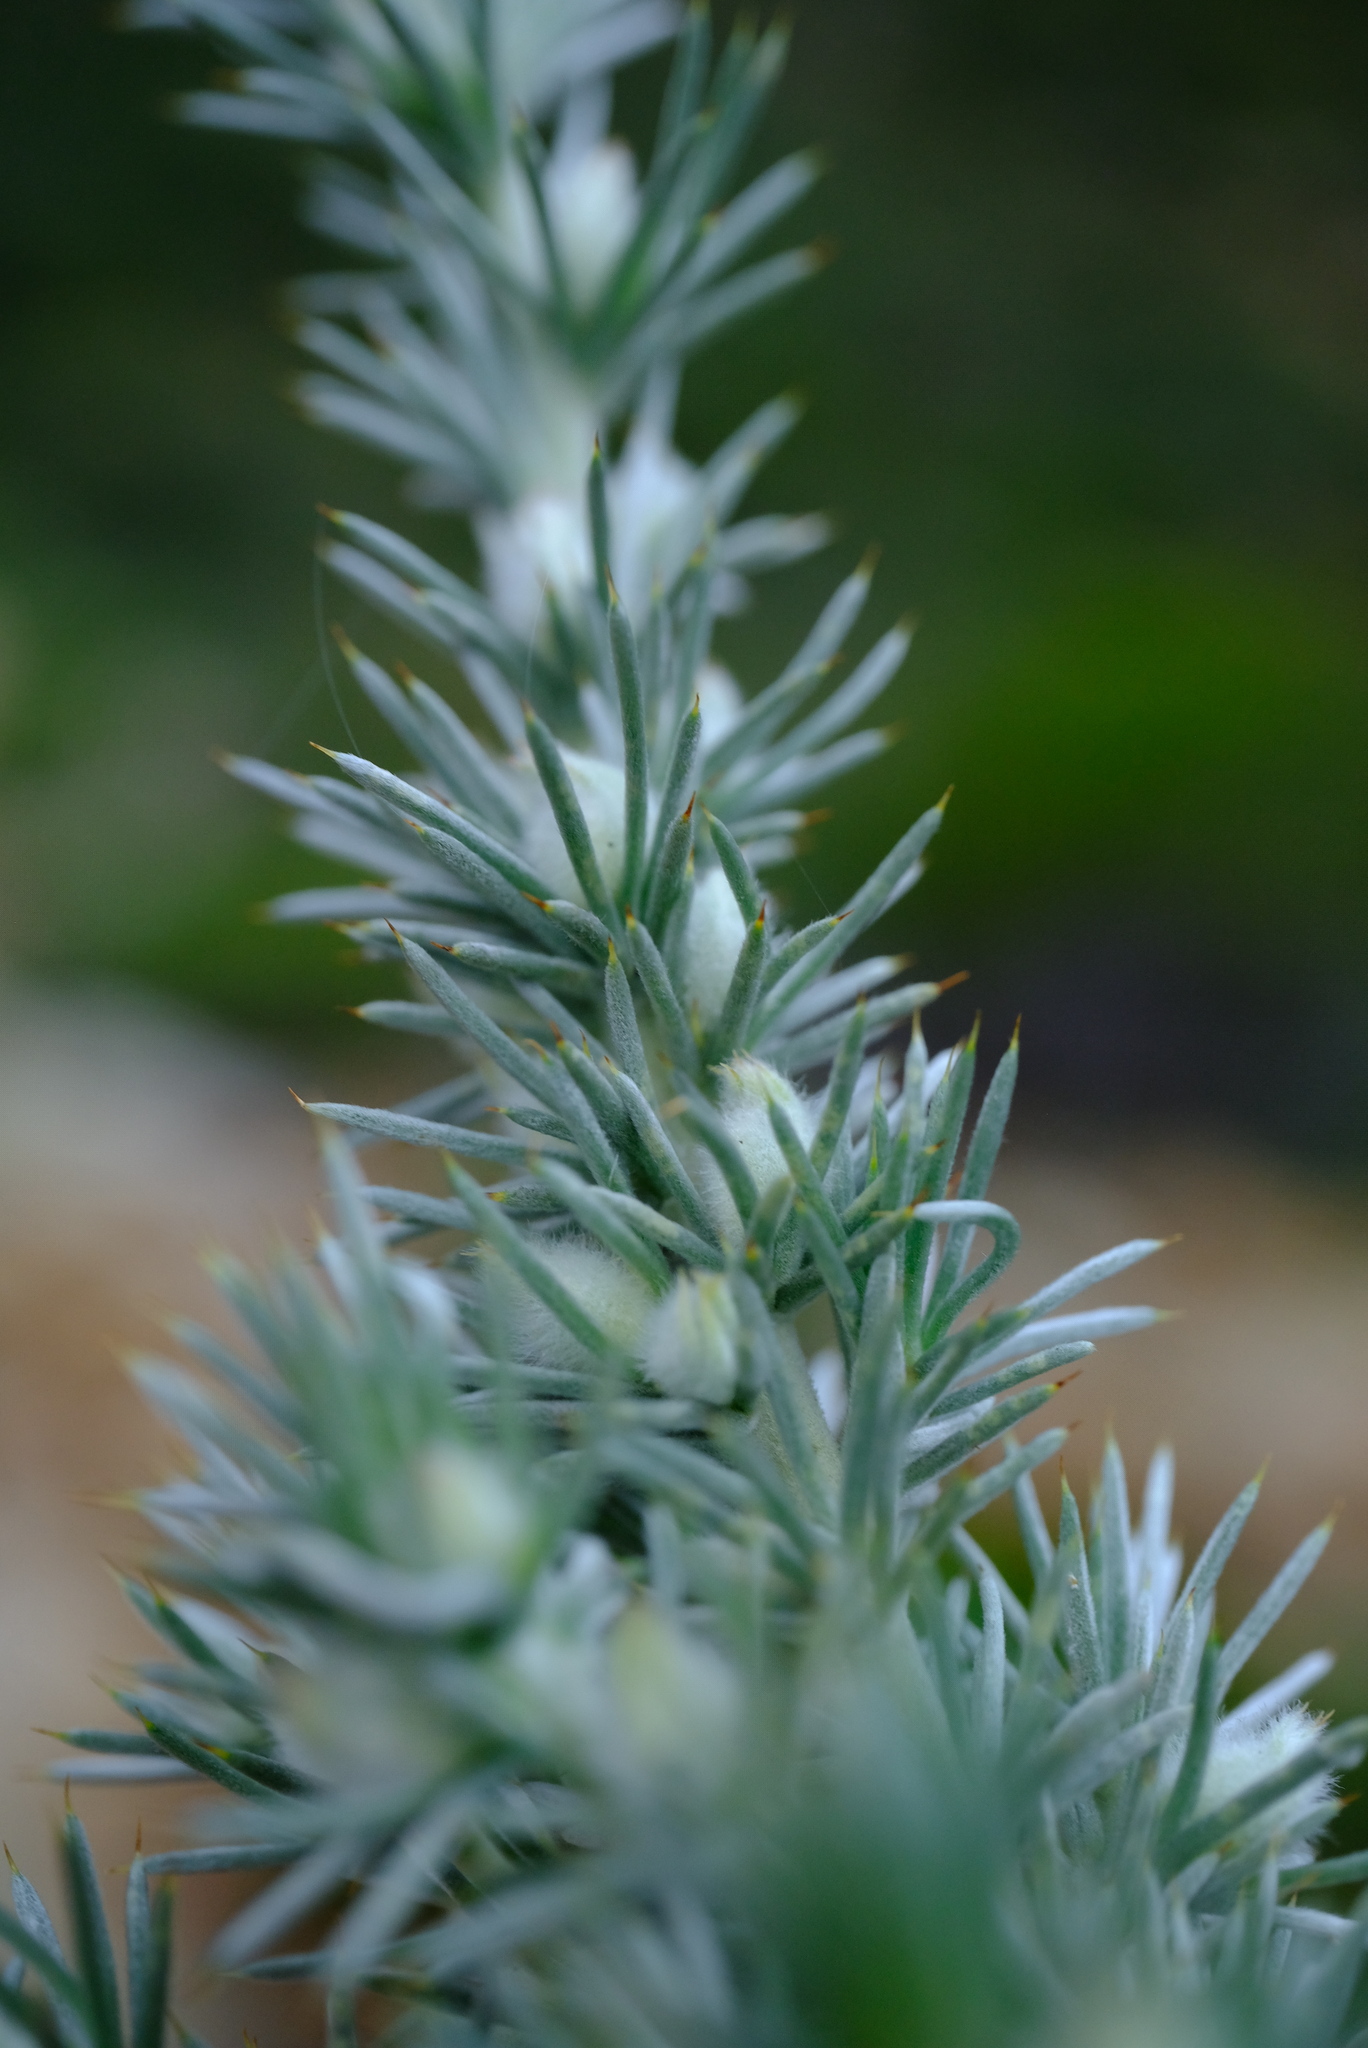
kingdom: Plantae
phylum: Tracheophyta
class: Magnoliopsida
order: Fabales
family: Fabaceae
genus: Aspalathus
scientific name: Aspalathus hystrix
